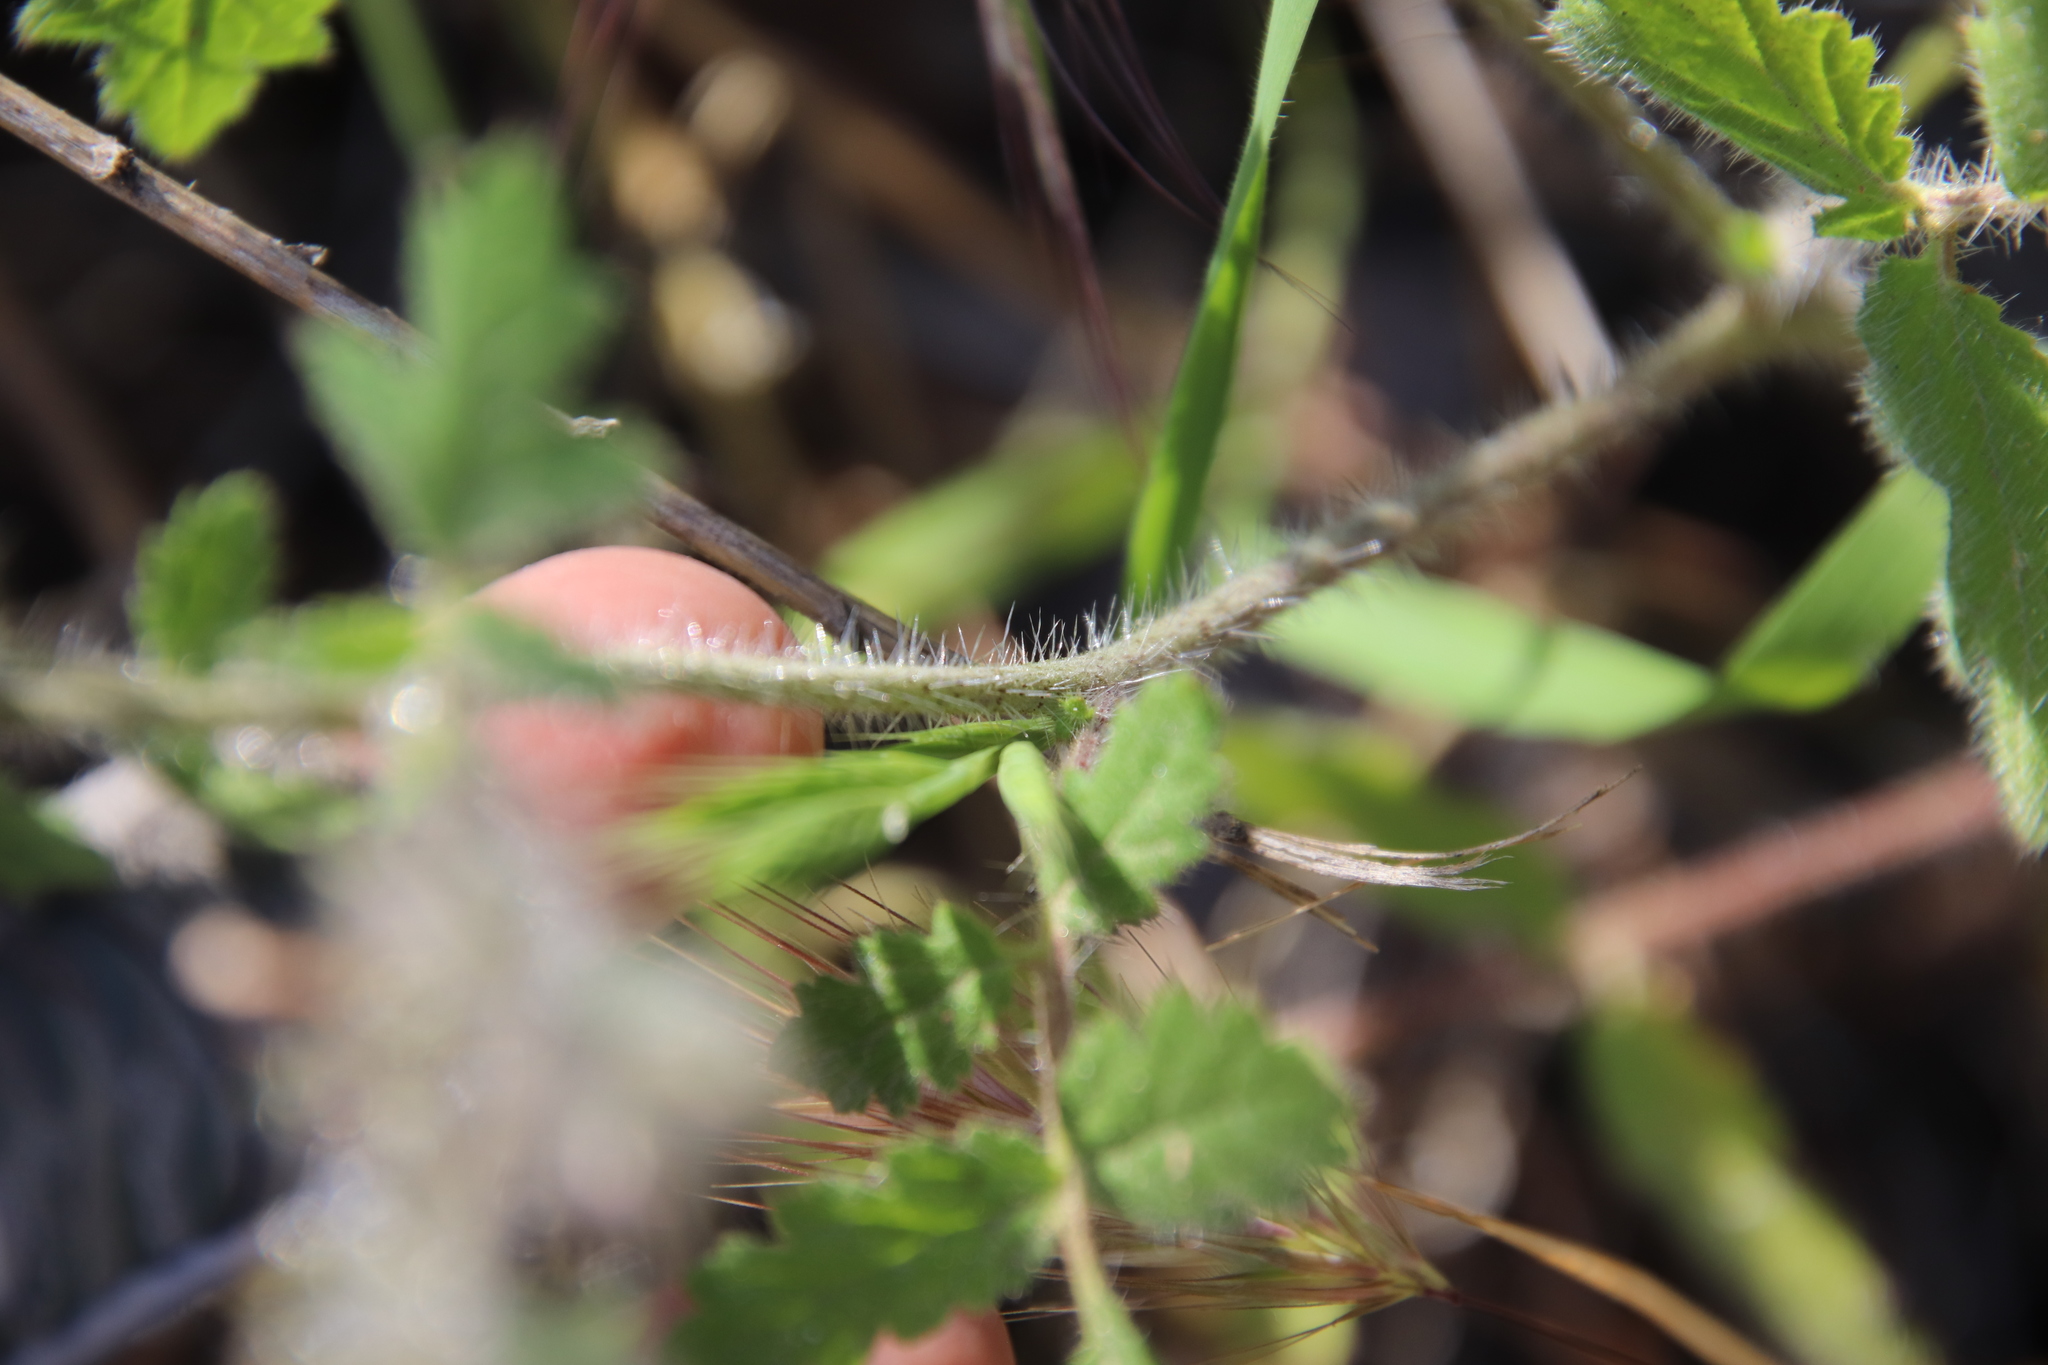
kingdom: Plantae
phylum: Tracheophyta
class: Magnoliopsida
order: Boraginales
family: Hydrophyllaceae
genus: Phacelia
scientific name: Phacelia cicutaria
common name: Caterpillar phacelia
